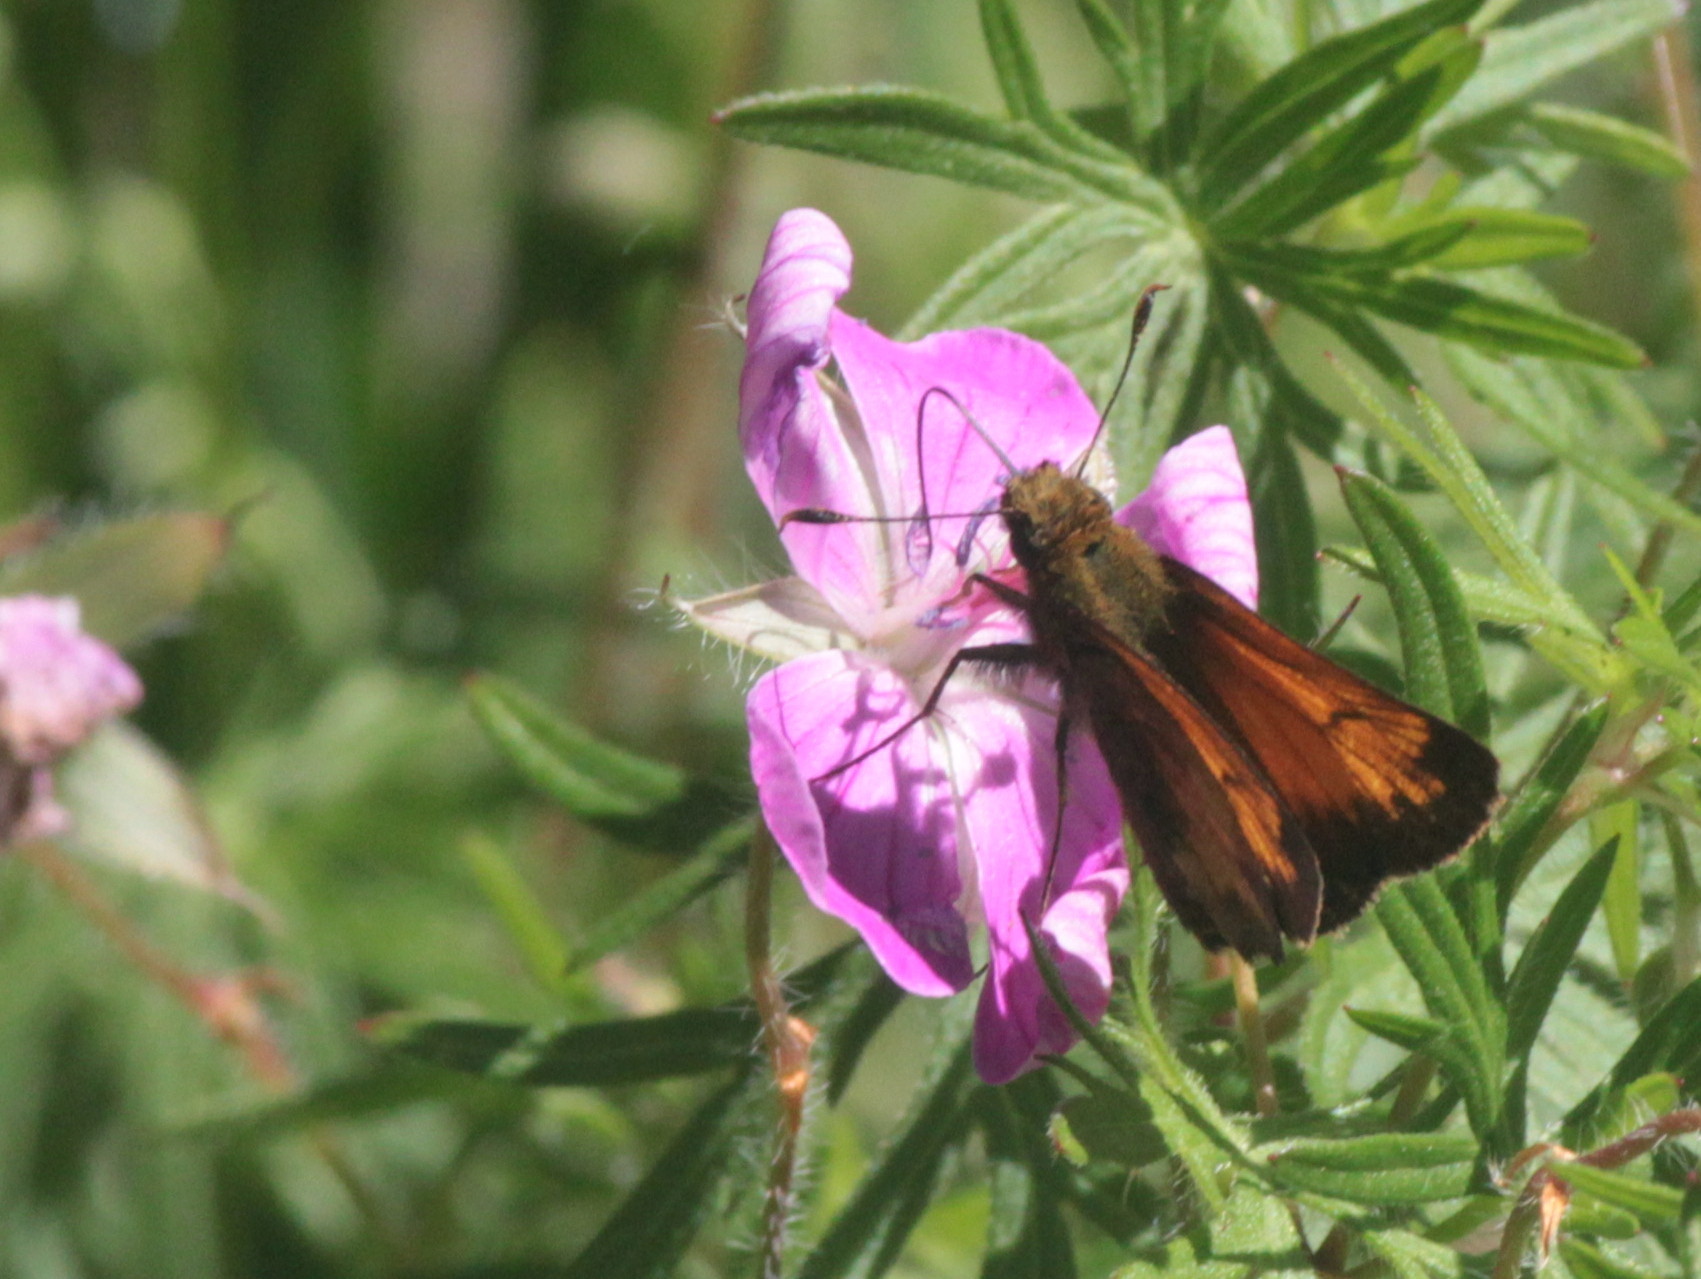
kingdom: Animalia
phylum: Arthropoda
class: Insecta
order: Lepidoptera
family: Hesperiidae
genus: Lon
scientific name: Lon hobomok
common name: Hobomok skipper
